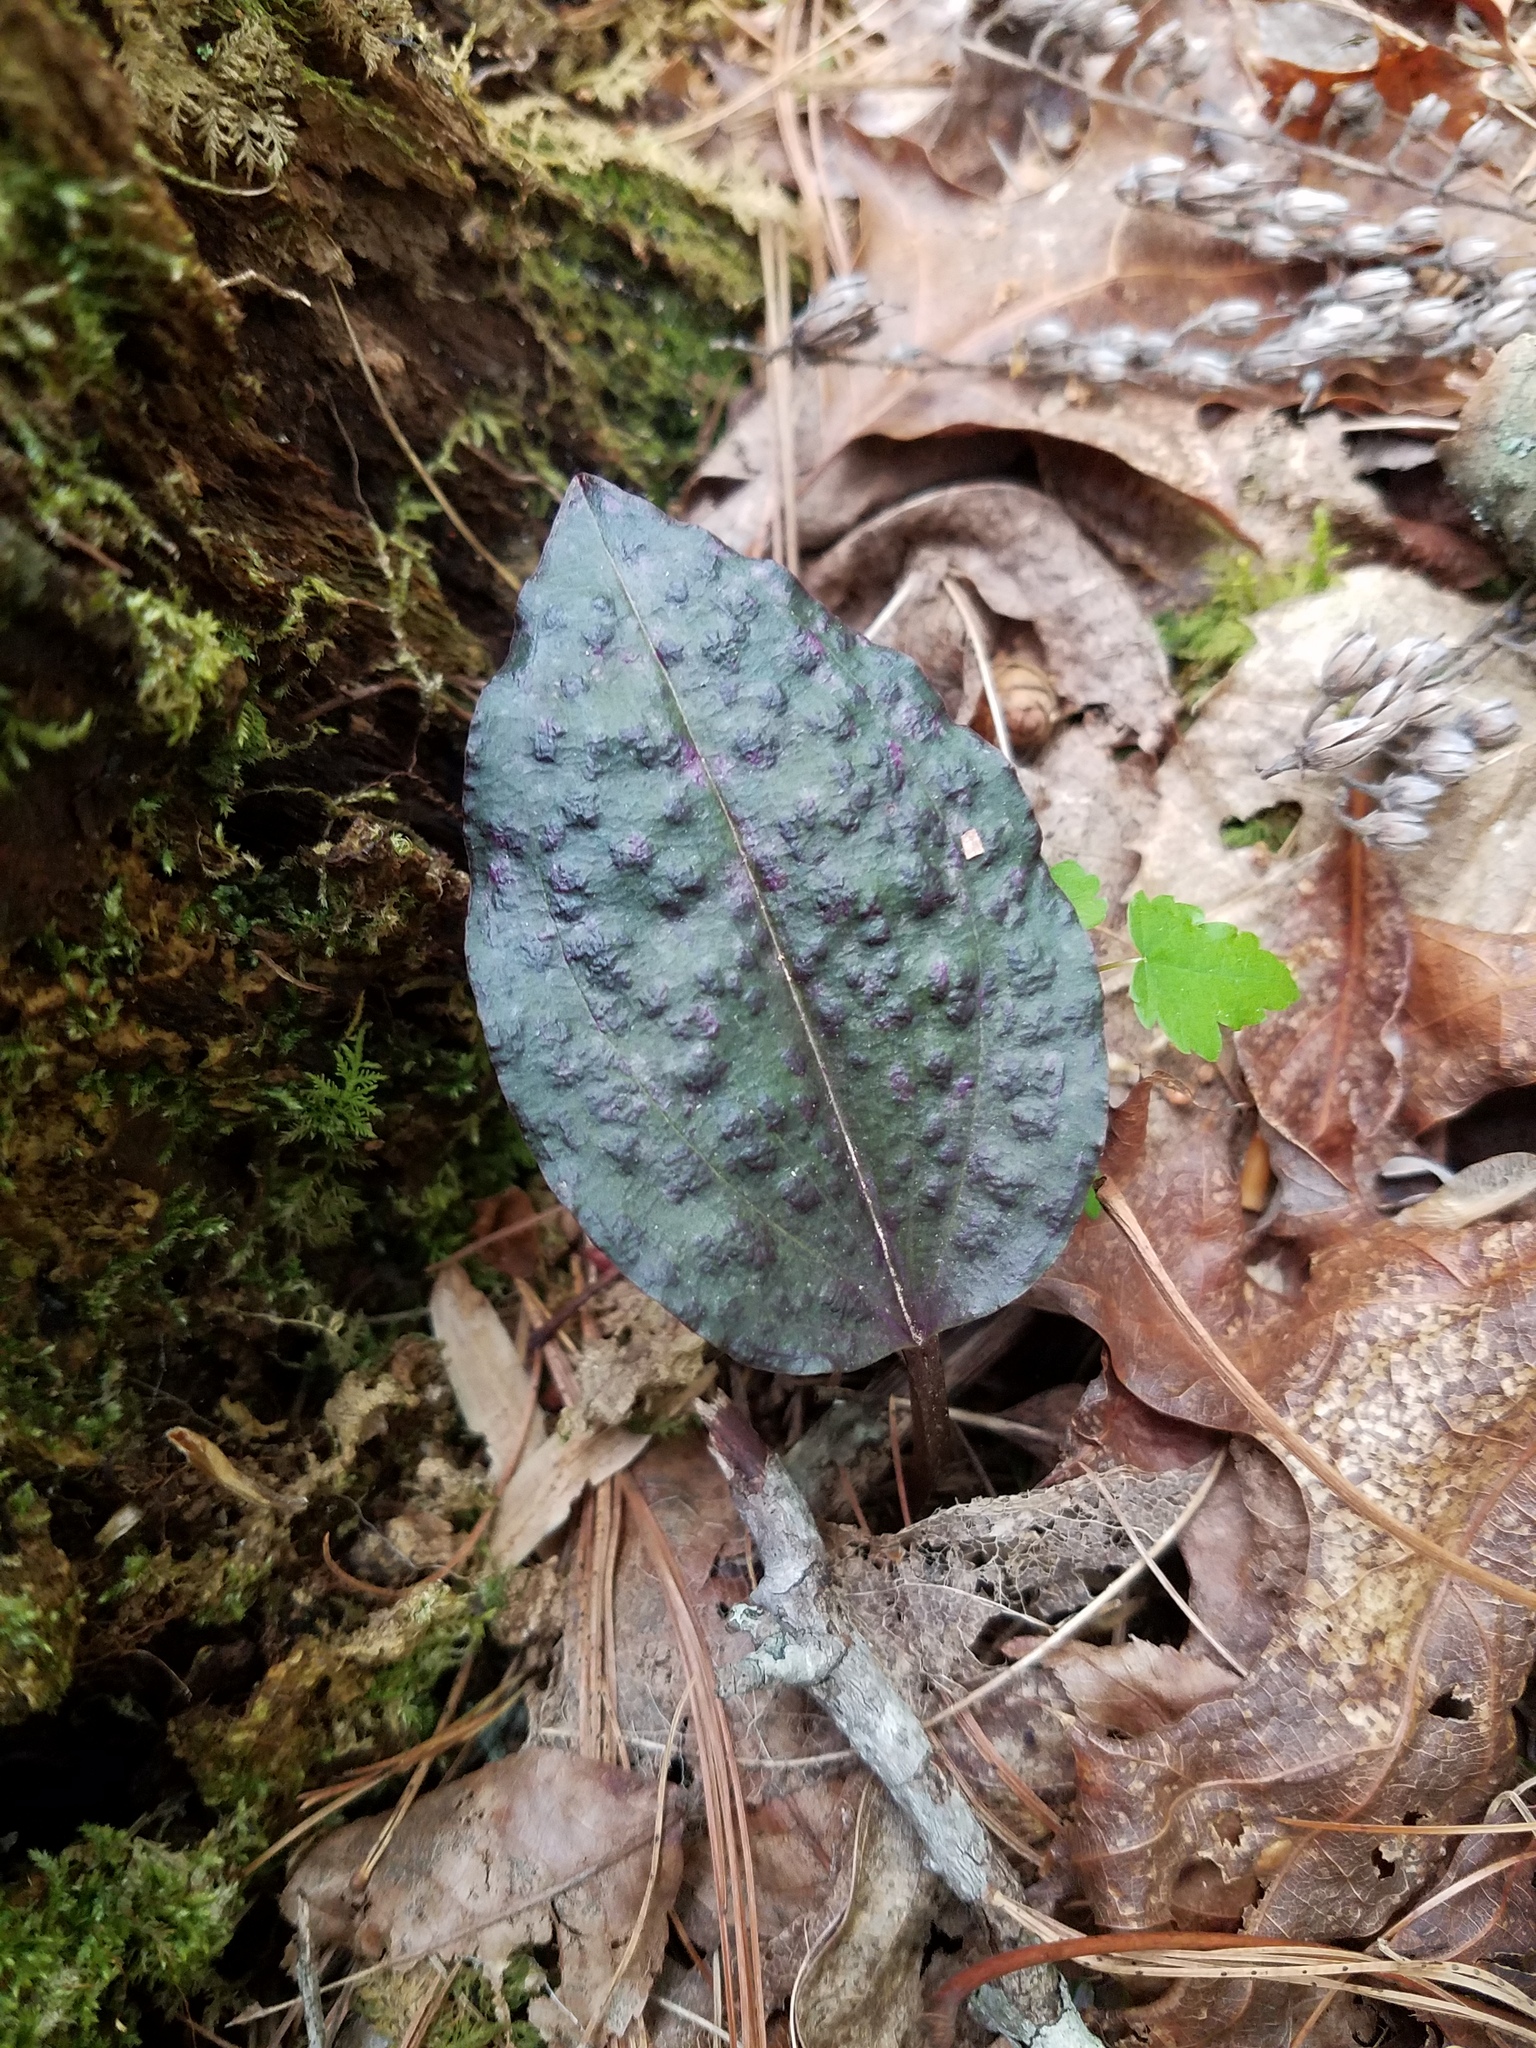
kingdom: Plantae
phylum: Tracheophyta
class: Liliopsida
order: Asparagales
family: Orchidaceae
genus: Tipularia
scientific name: Tipularia discolor
